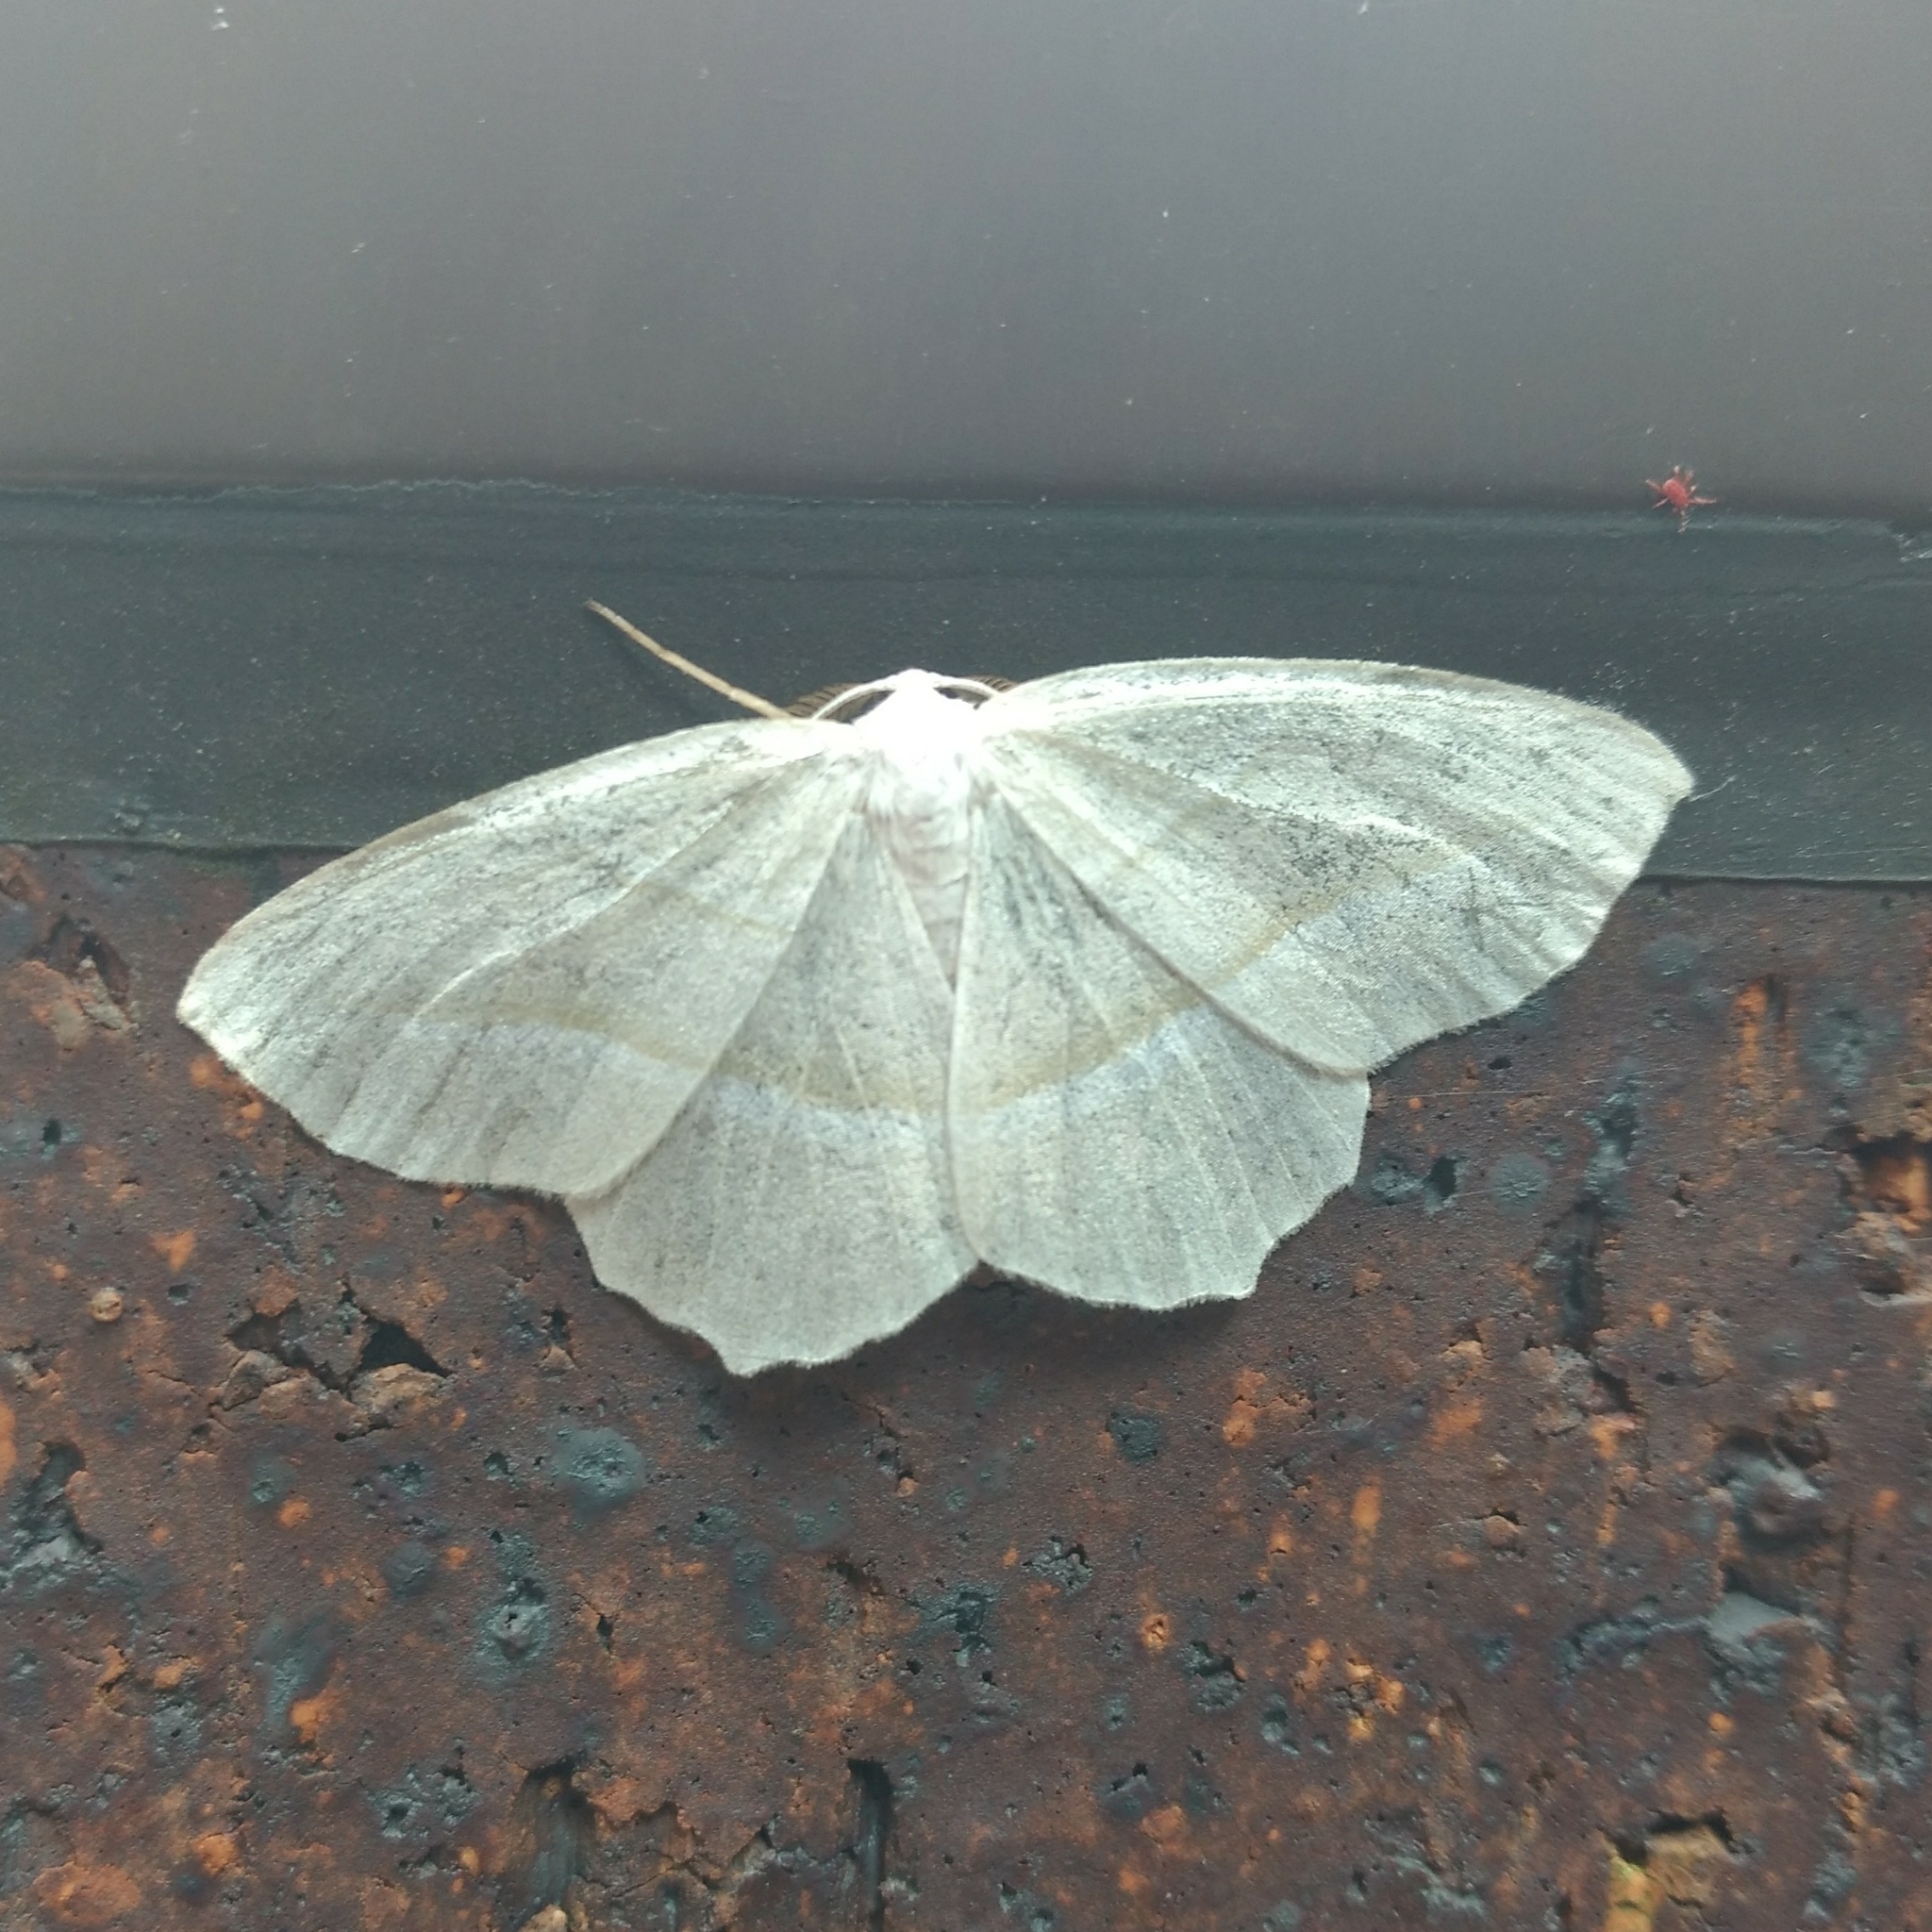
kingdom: Animalia
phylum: Arthropoda
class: Insecta
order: Lepidoptera
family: Geometridae
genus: Campaea
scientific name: Campaea perlata
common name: Fringed looper
